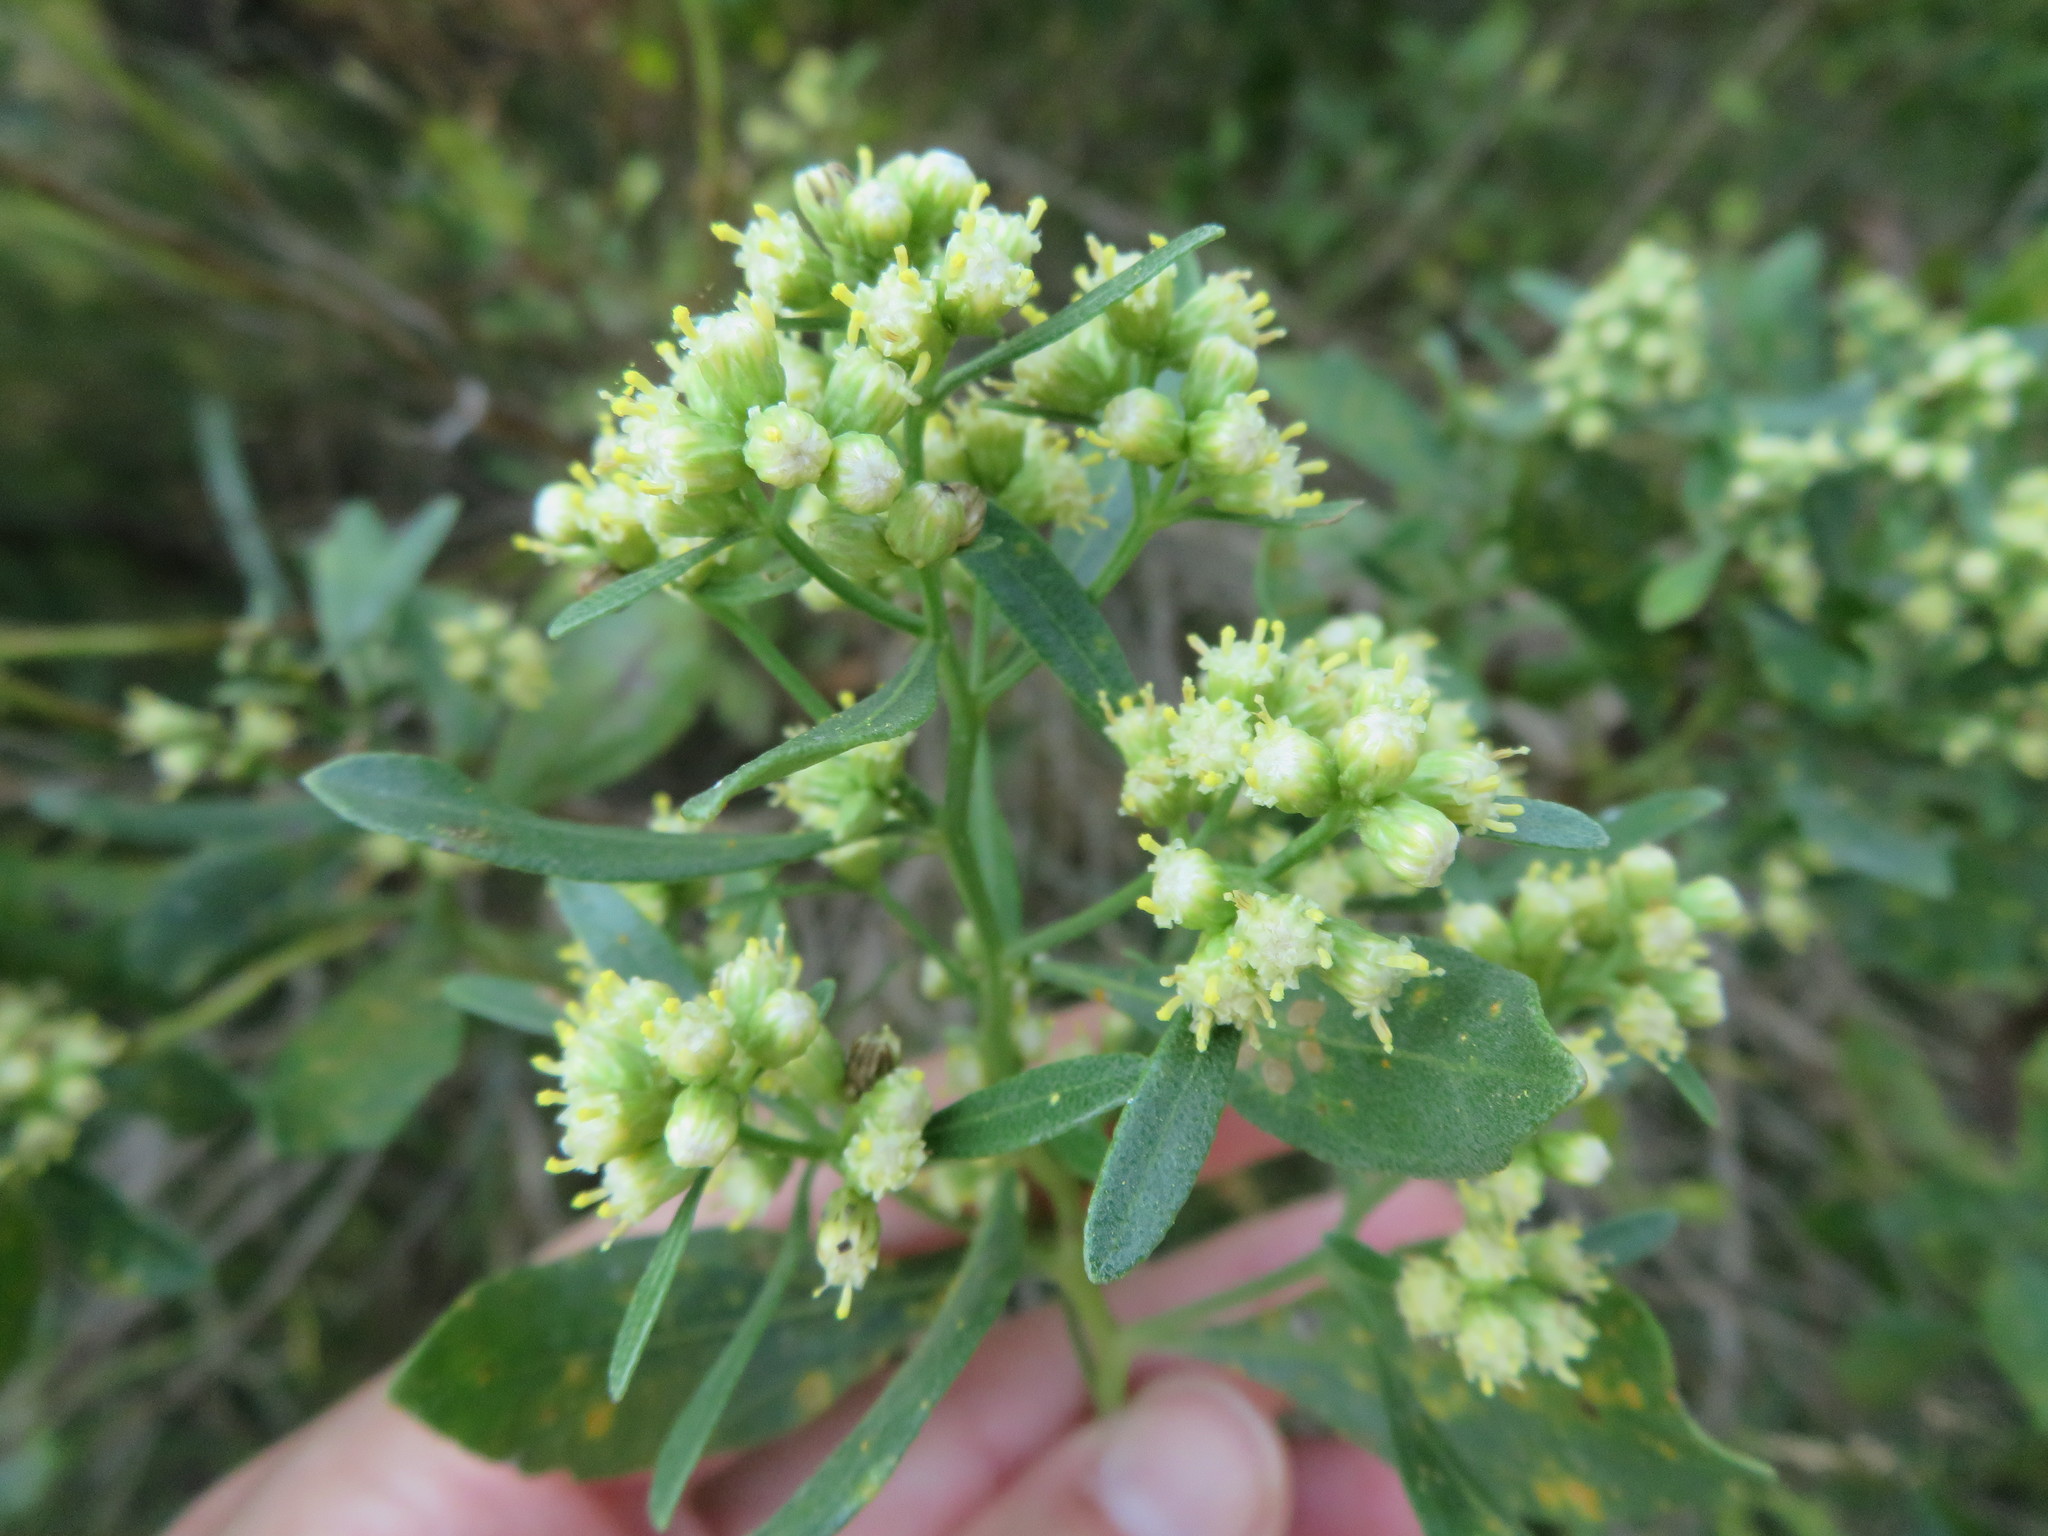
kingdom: Plantae
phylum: Tracheophyta
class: Magnoliopsida
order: Asterales
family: Asteraceae
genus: Baccharis
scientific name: Baccharis halimifolia
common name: Eastern baccharis
